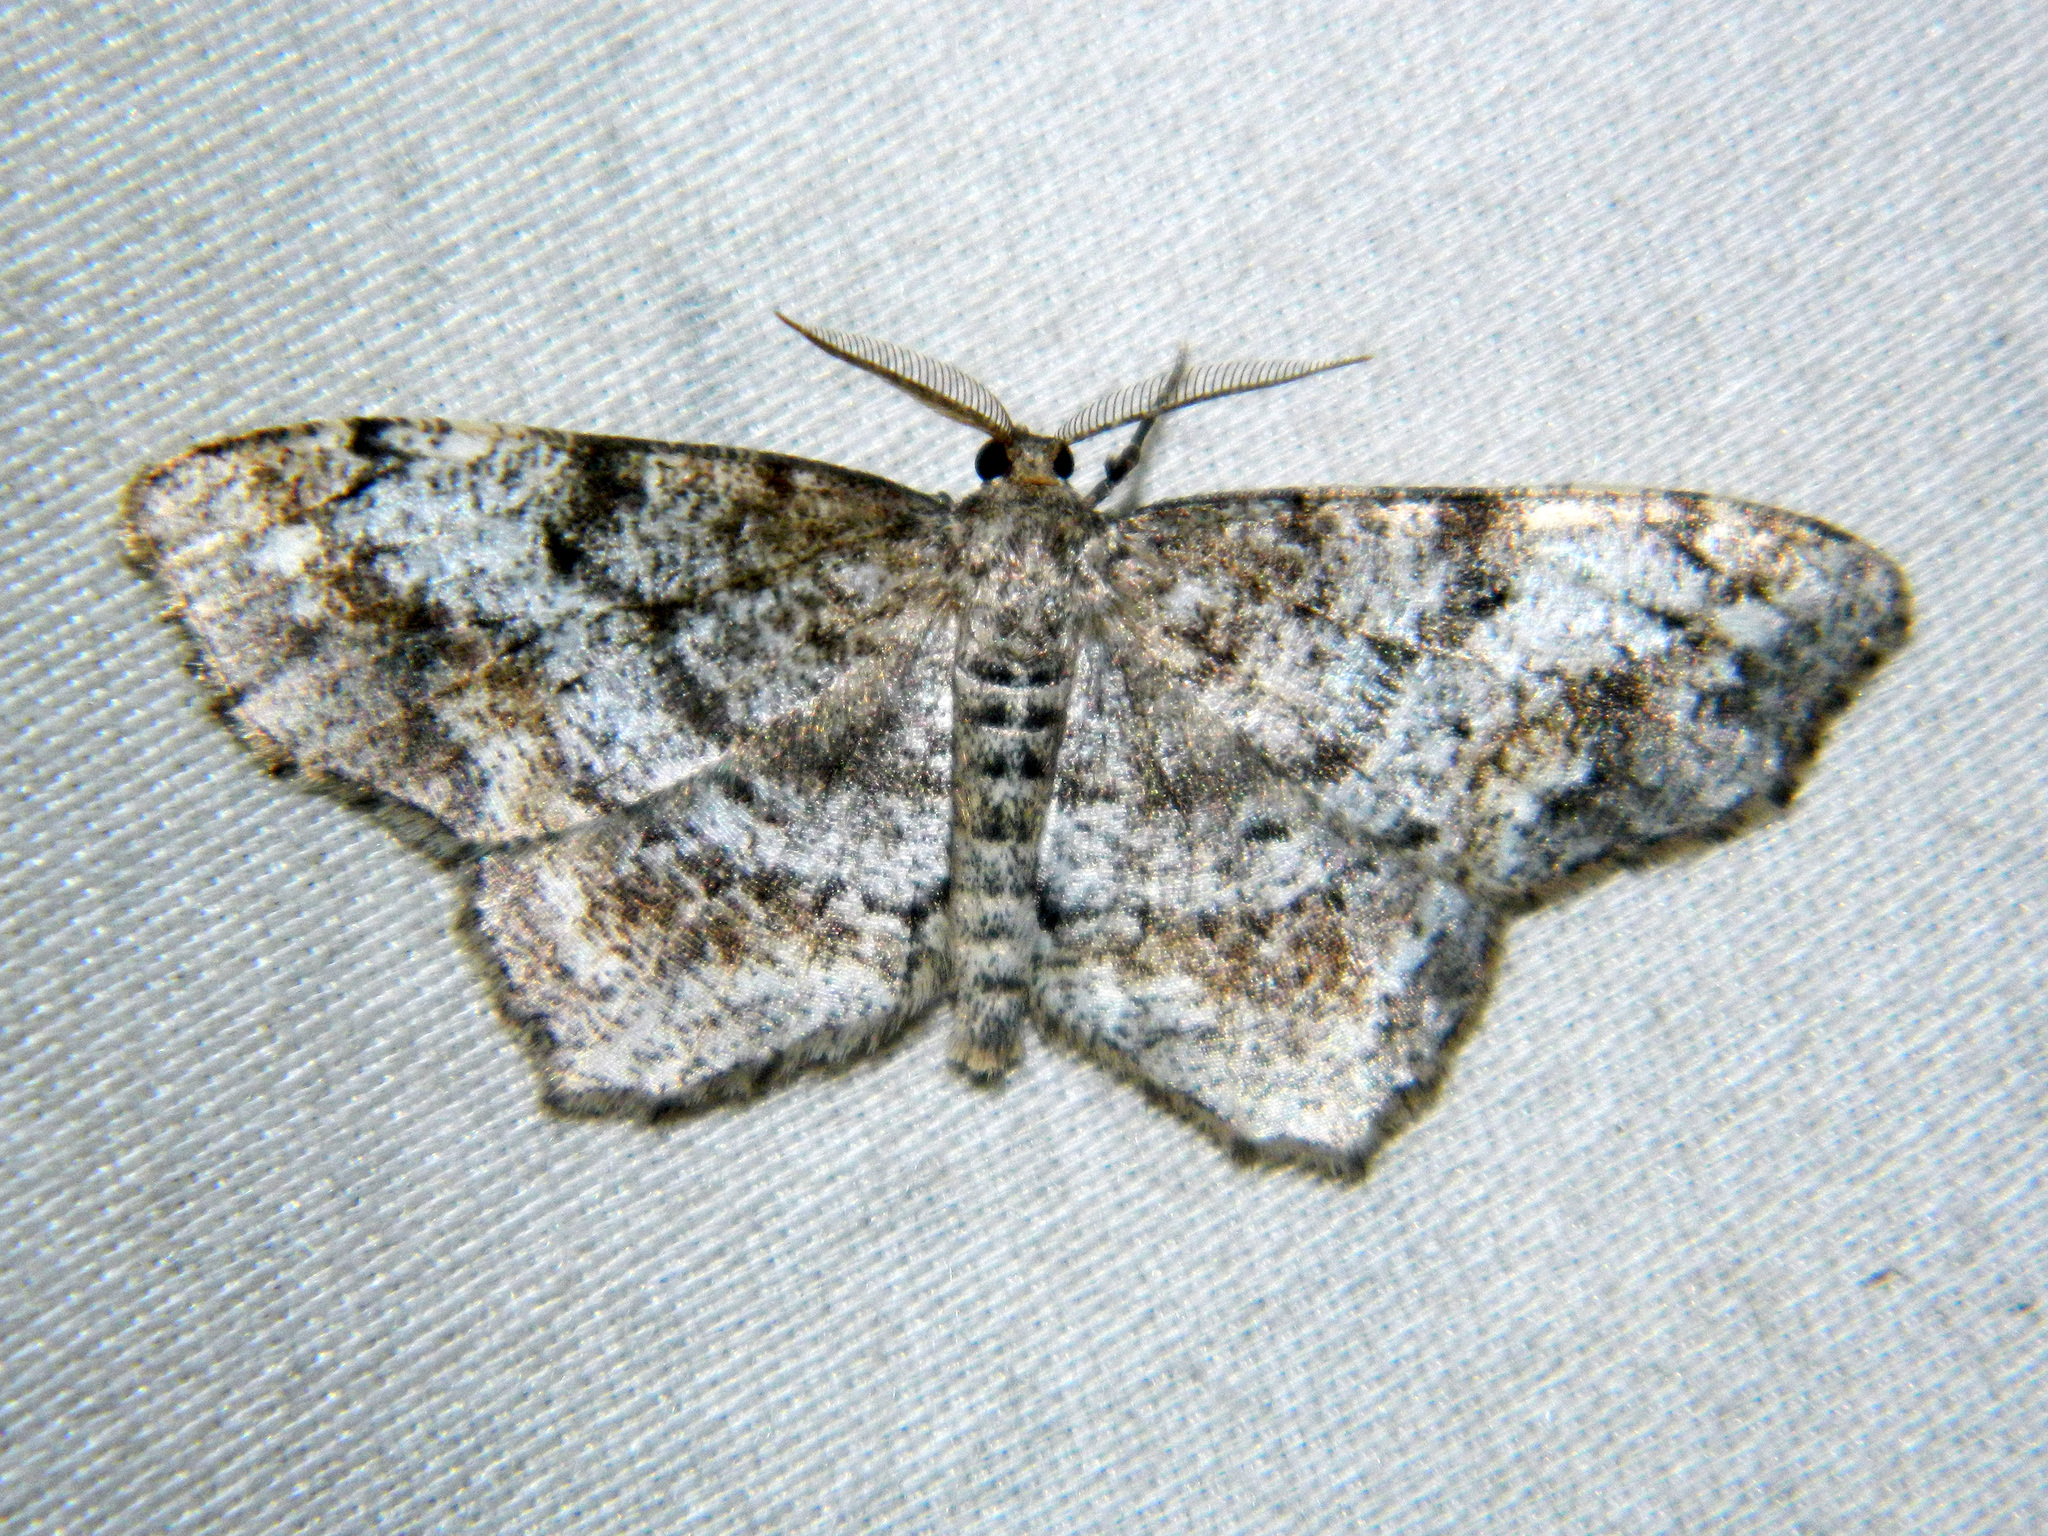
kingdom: Animalia
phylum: Arthropoda
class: Insecta
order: Lepidoptera
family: Geometridae
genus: Hypagyrtis
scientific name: Hypagyrtis unipunctata
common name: One-spotted variant
